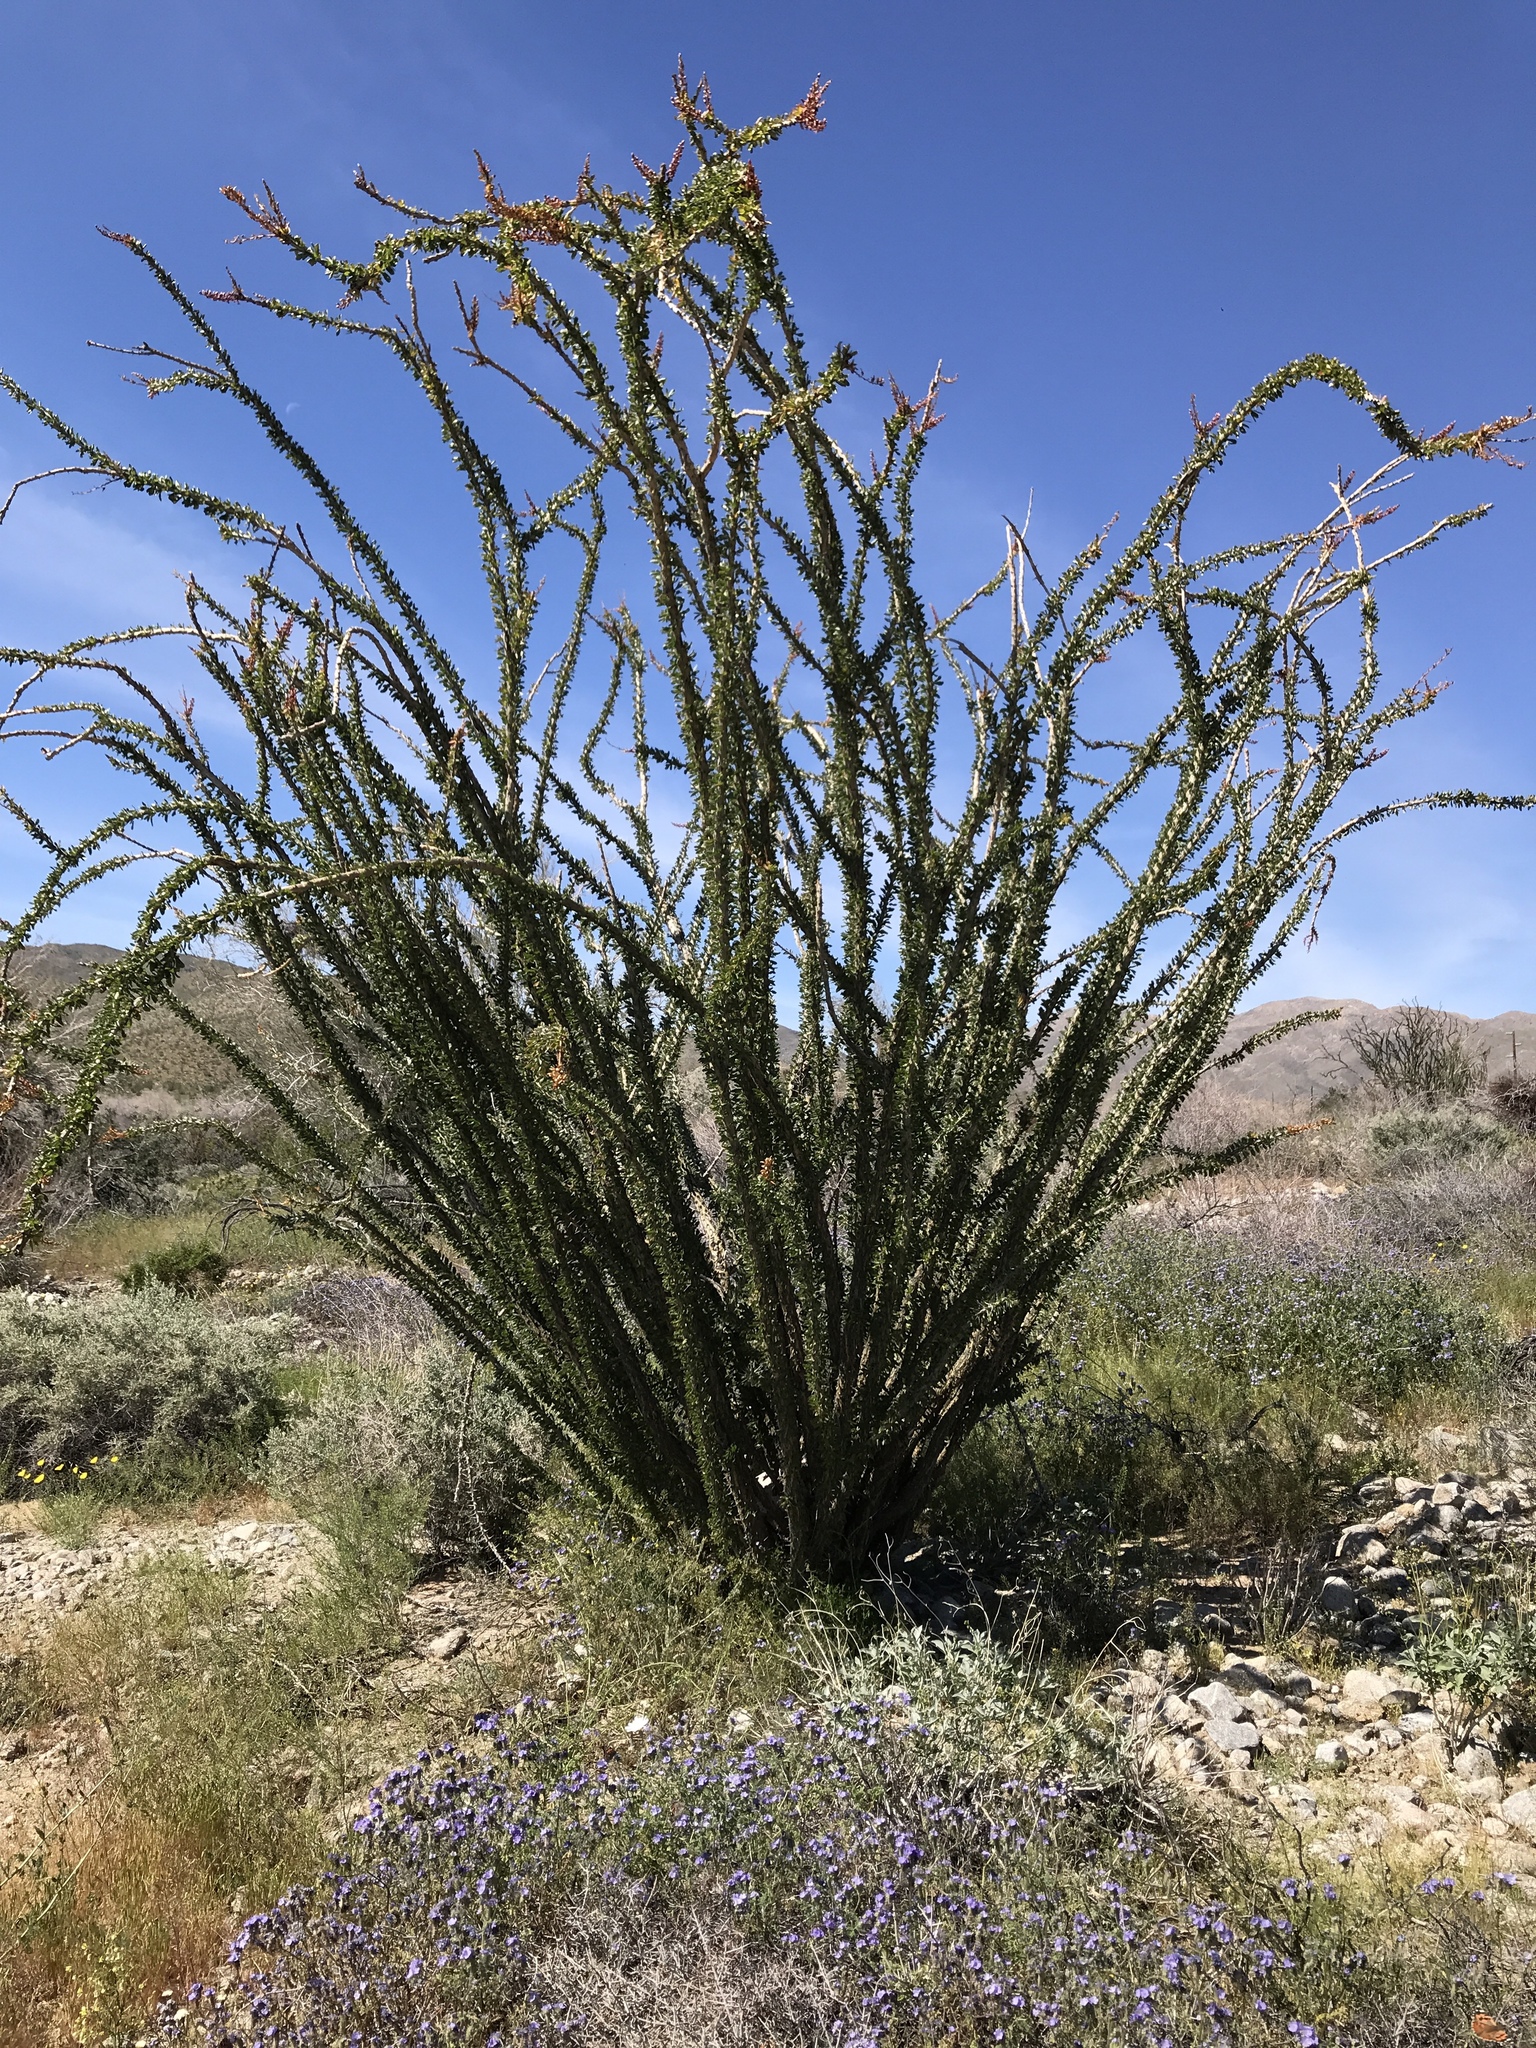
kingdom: Plantae
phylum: Tracheophyta
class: Magnoliopsida
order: Ericales
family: Fouquieriaceae
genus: Fouquieria
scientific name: Fouquieria splendens
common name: Vine-cactus
